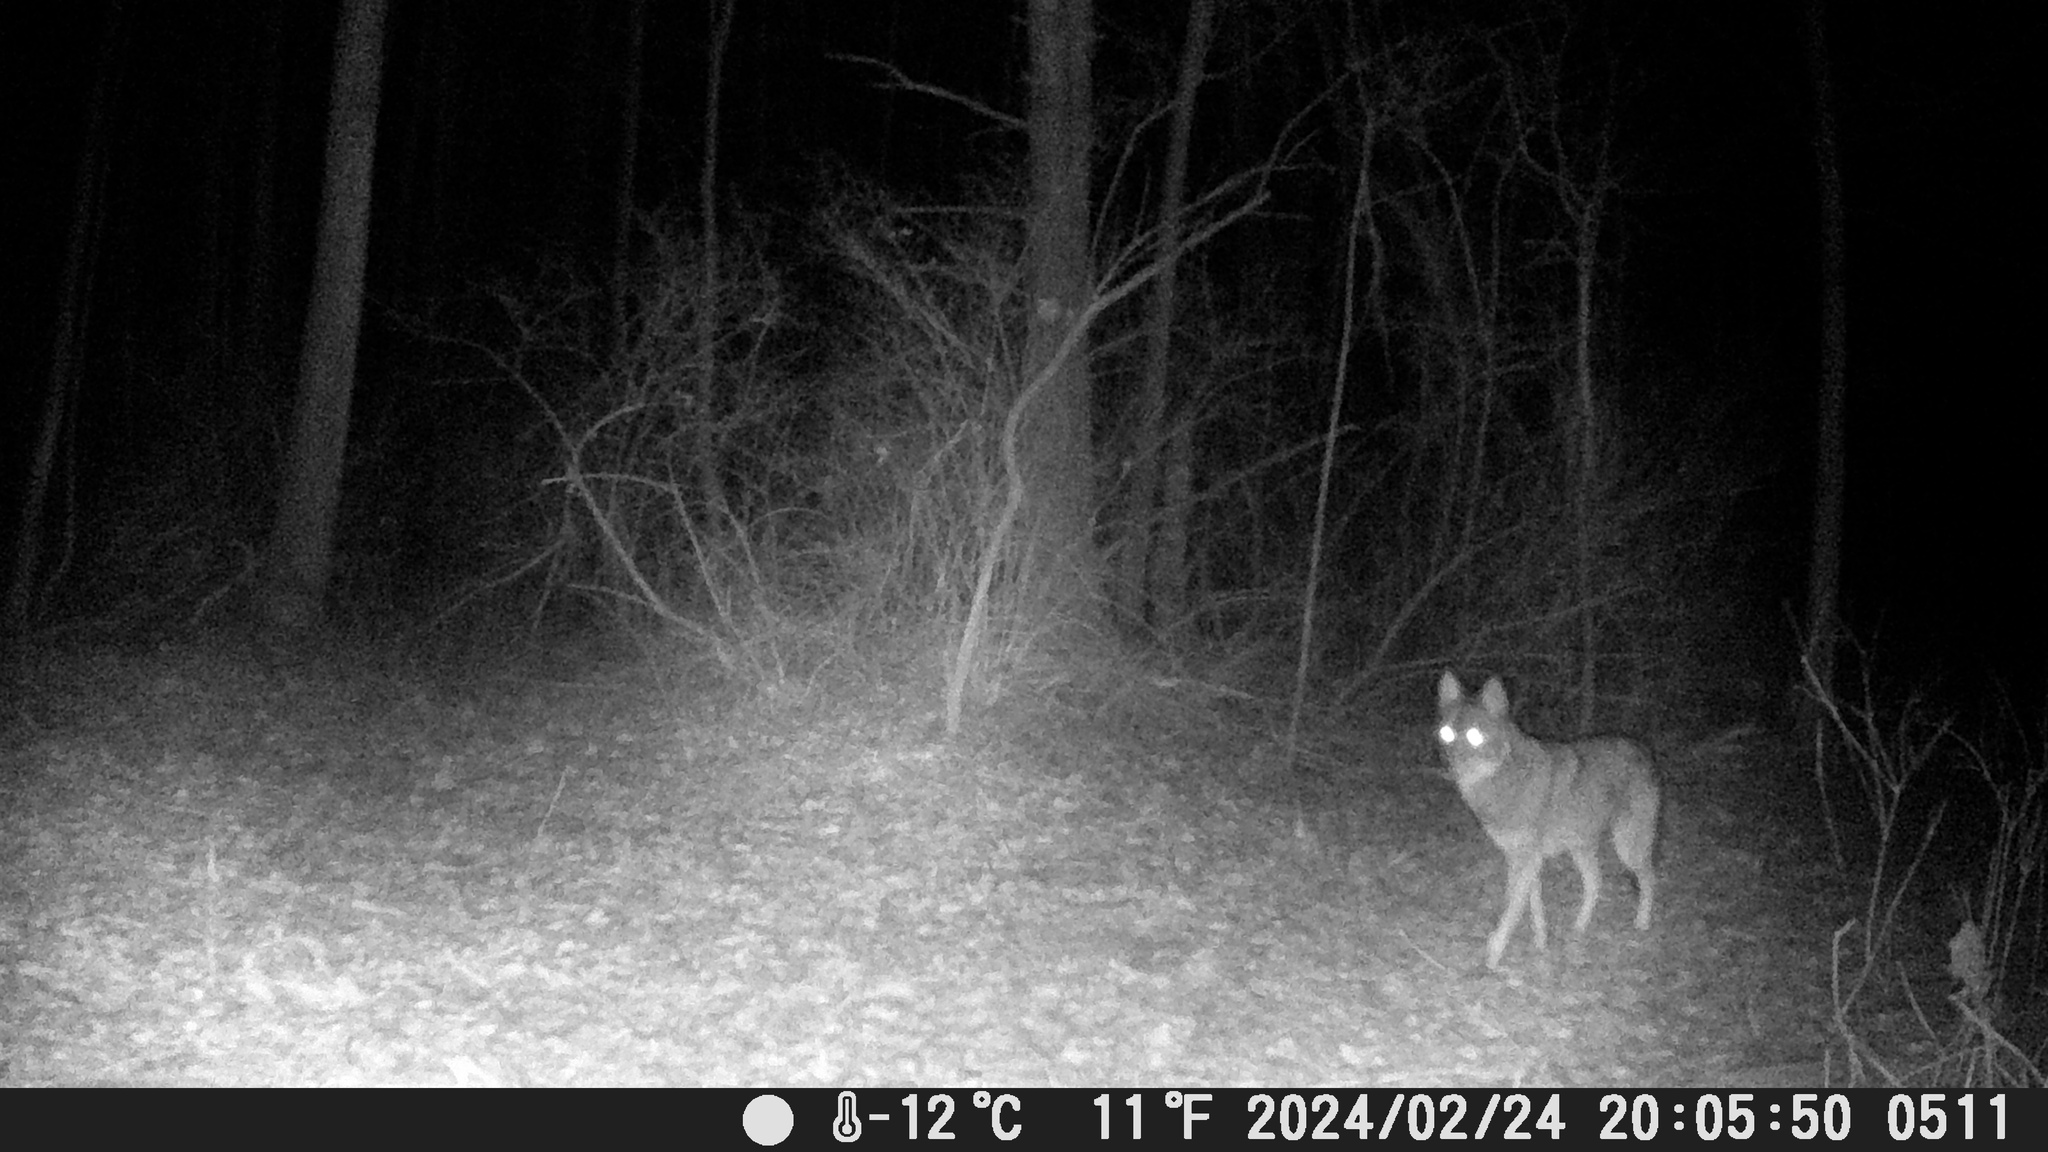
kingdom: Animalia
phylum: Chordata
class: Mammalia
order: Carnivora
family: Canidae
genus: Canis
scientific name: Canis latrans
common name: Coyote
